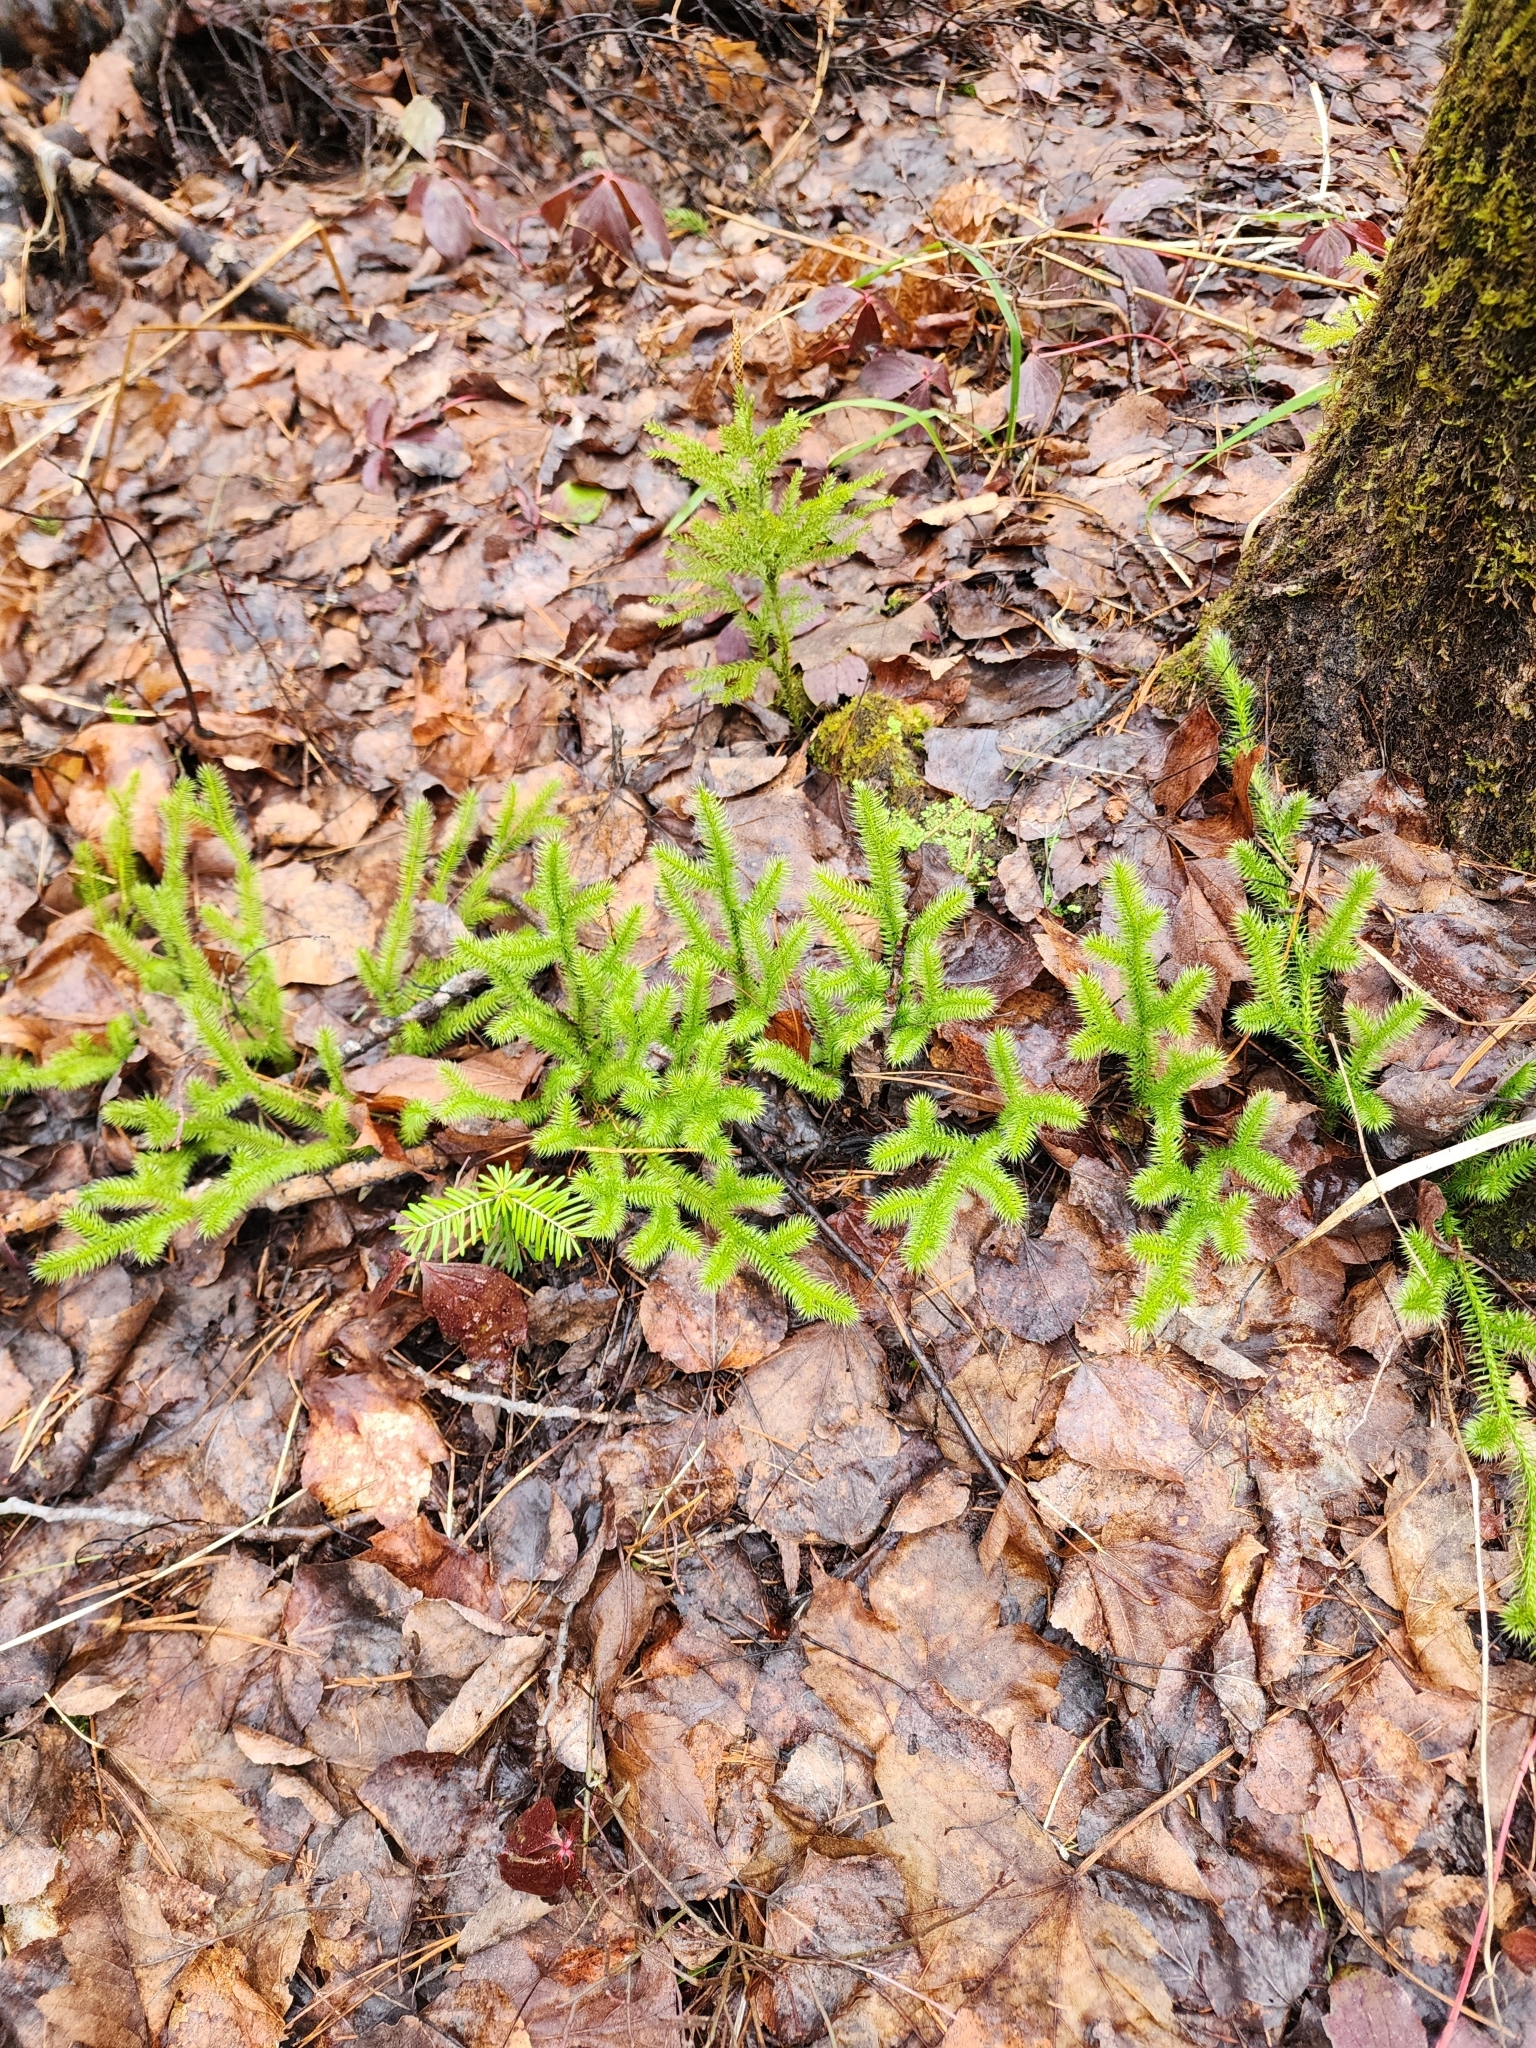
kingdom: Plantae
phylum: Tracheophyta
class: Lycopodiopsida
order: Lycopodiales
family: Lycopodiaceae
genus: Lycopodium
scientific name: Lycopodium clavatum
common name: Stag's-horn clubmoss
